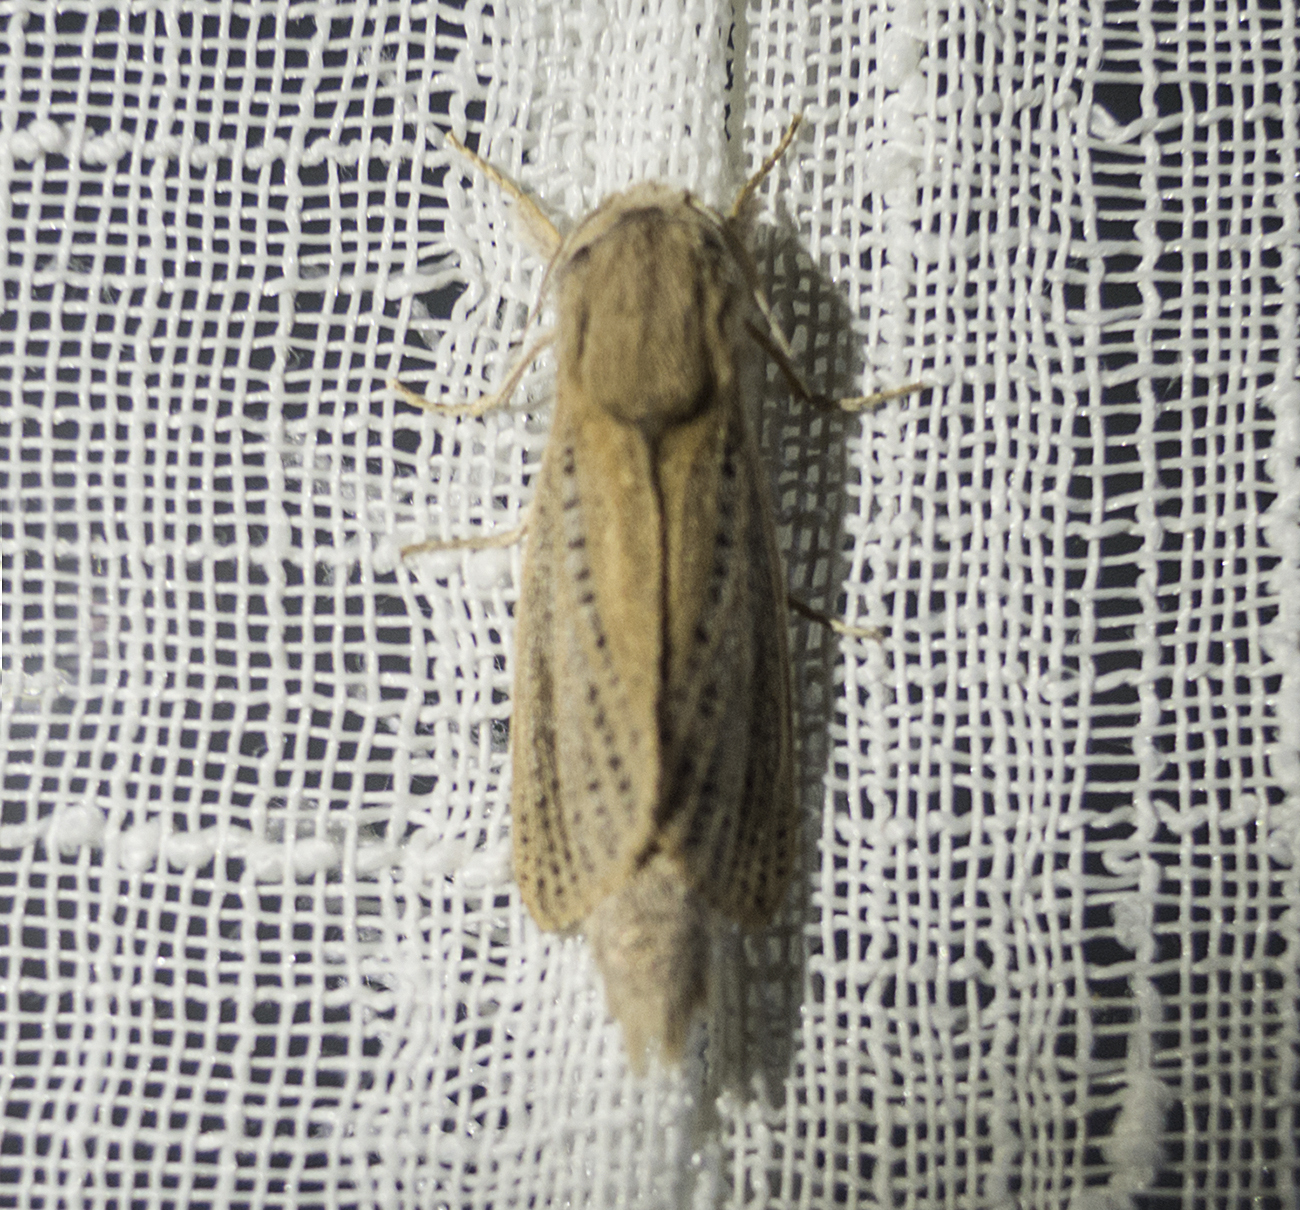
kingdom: Animalia
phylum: Arthropoda
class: Insecta
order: Lepidoptera
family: Cossidae
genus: Phragmataecia
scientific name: Phragmataecia castaneae
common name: Reed leopard
